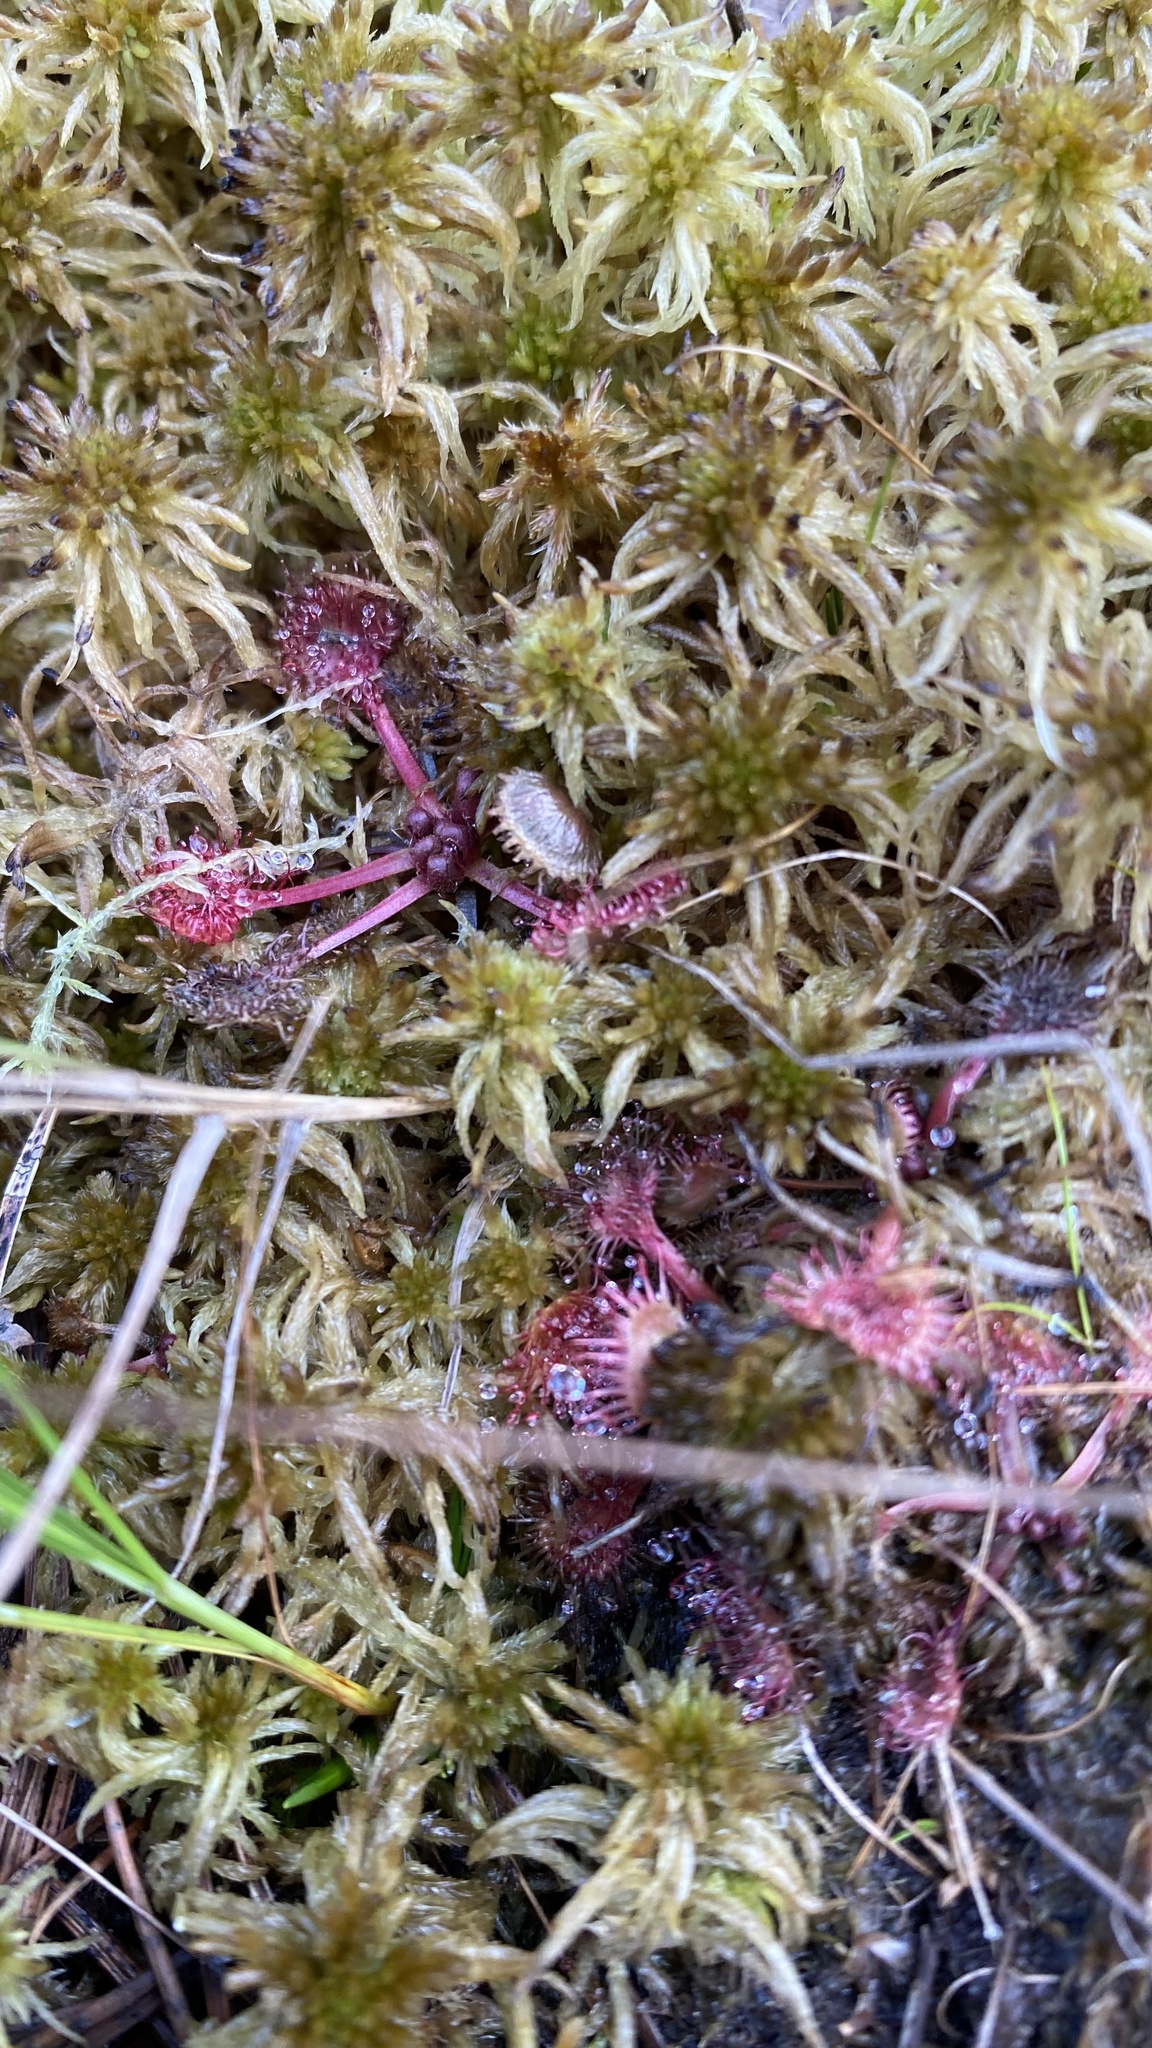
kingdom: Plantae
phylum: Tracheophyta
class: Magnoliopsida
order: Caryophyllales
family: Droseraceae
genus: Drosera
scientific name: Drosera rotundifolia
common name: Round-leaved sundew
